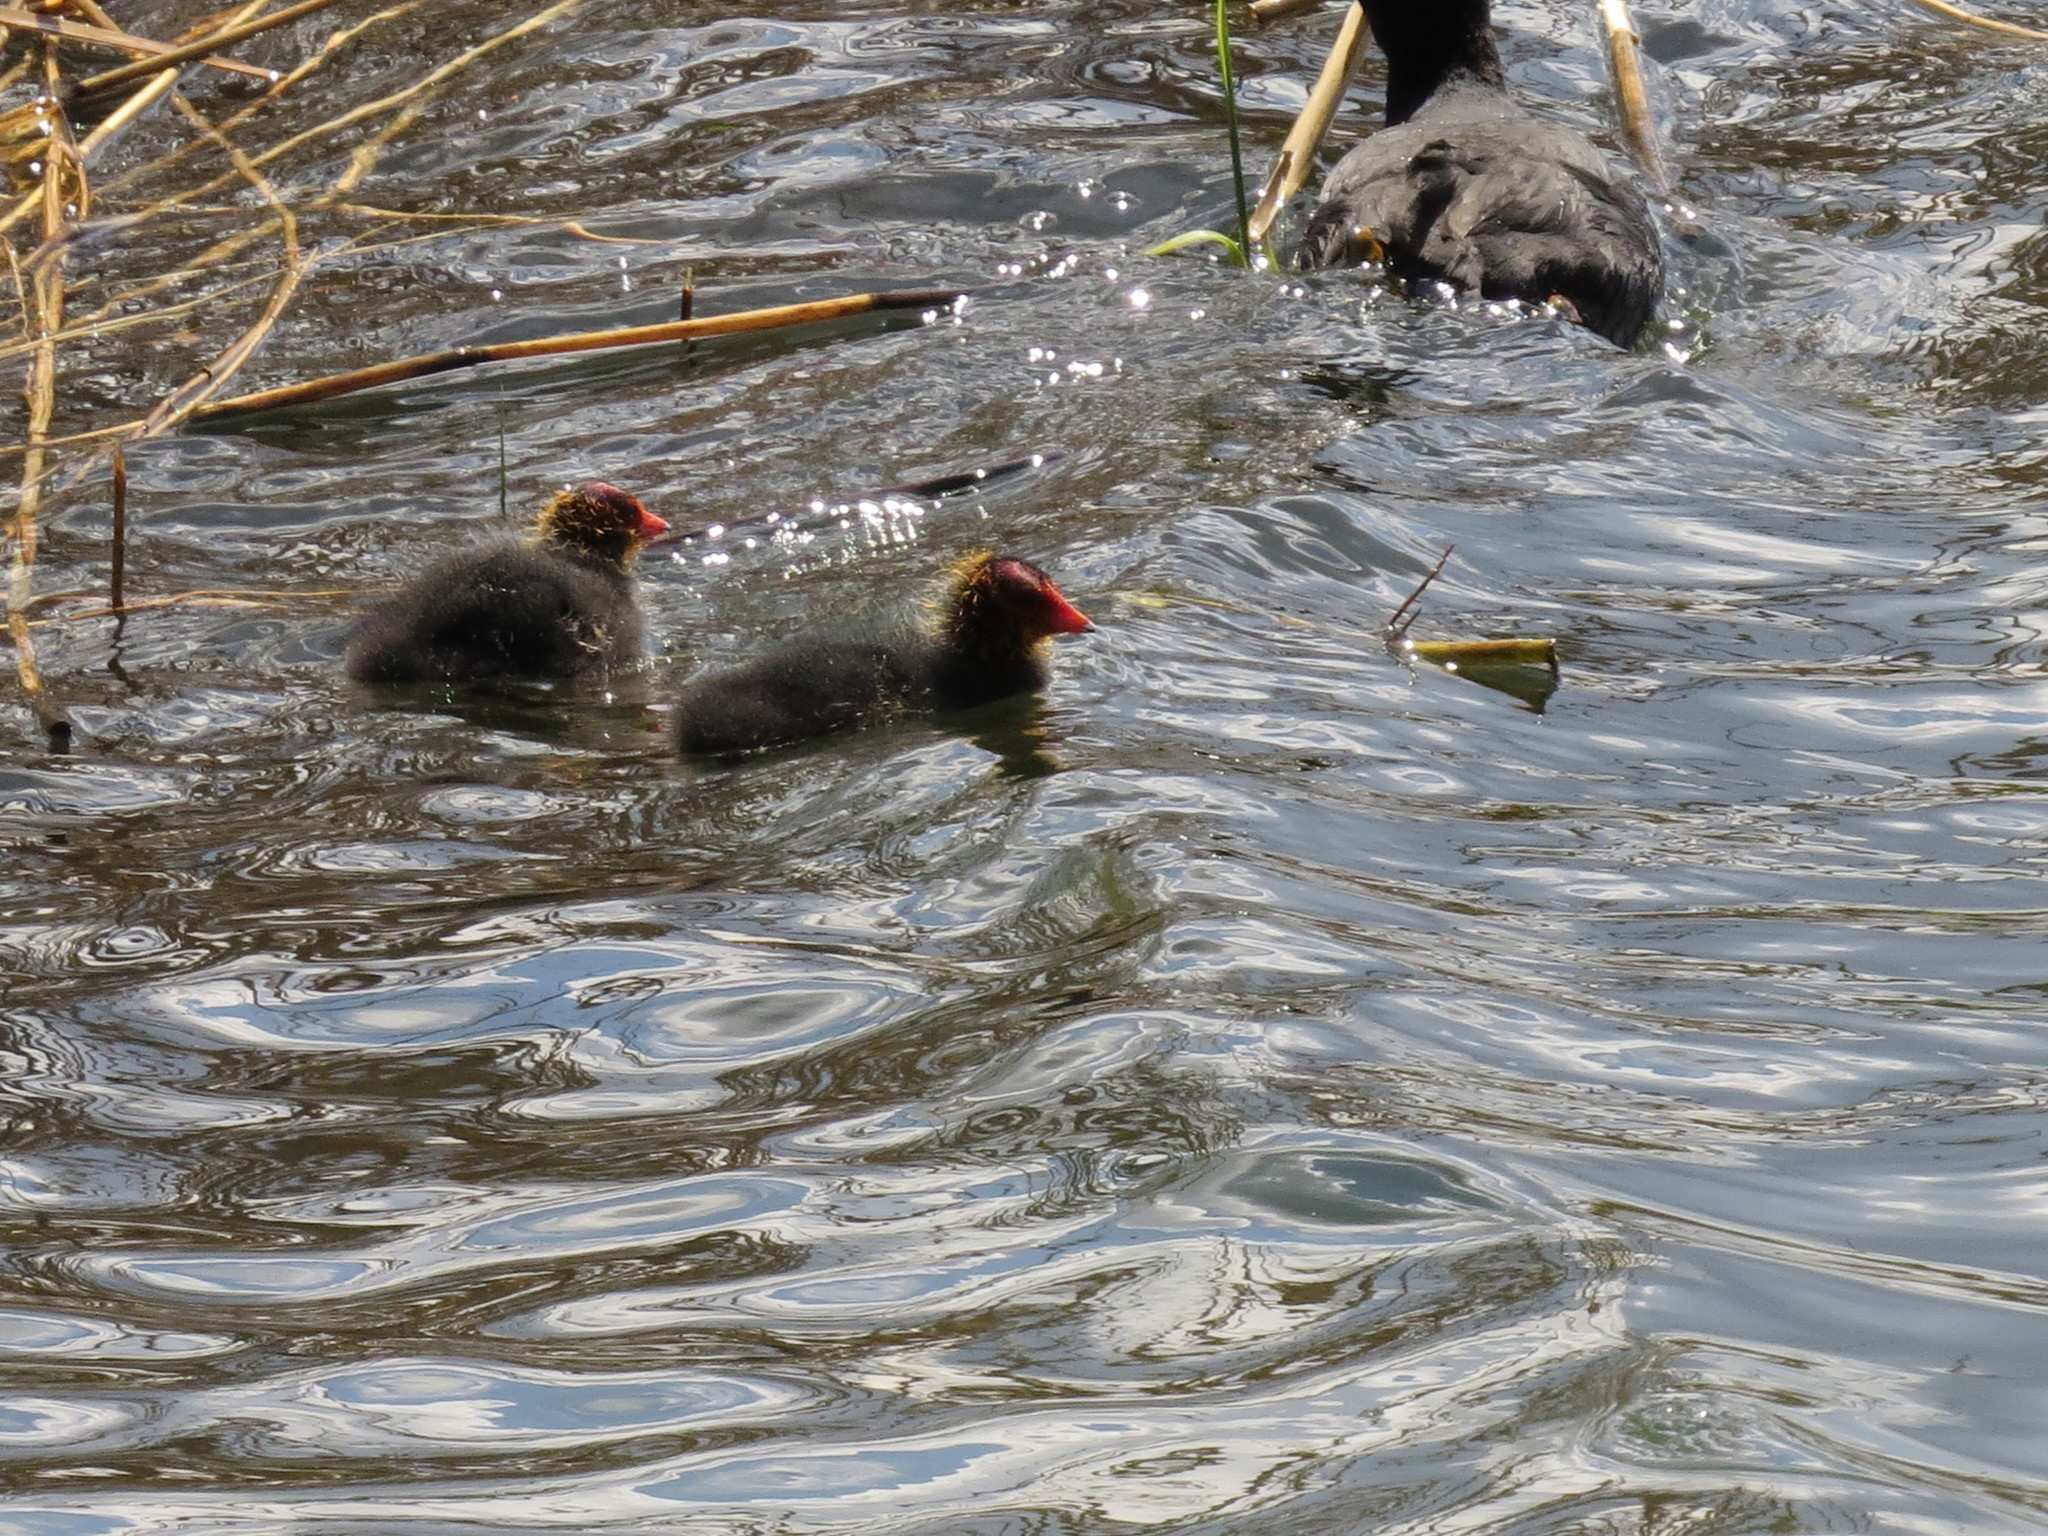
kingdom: Animalia
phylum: Chordata
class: Aves
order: Gruiformes
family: Rallidae
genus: Fulica
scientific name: Fulica atra
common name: Eurasian coot
